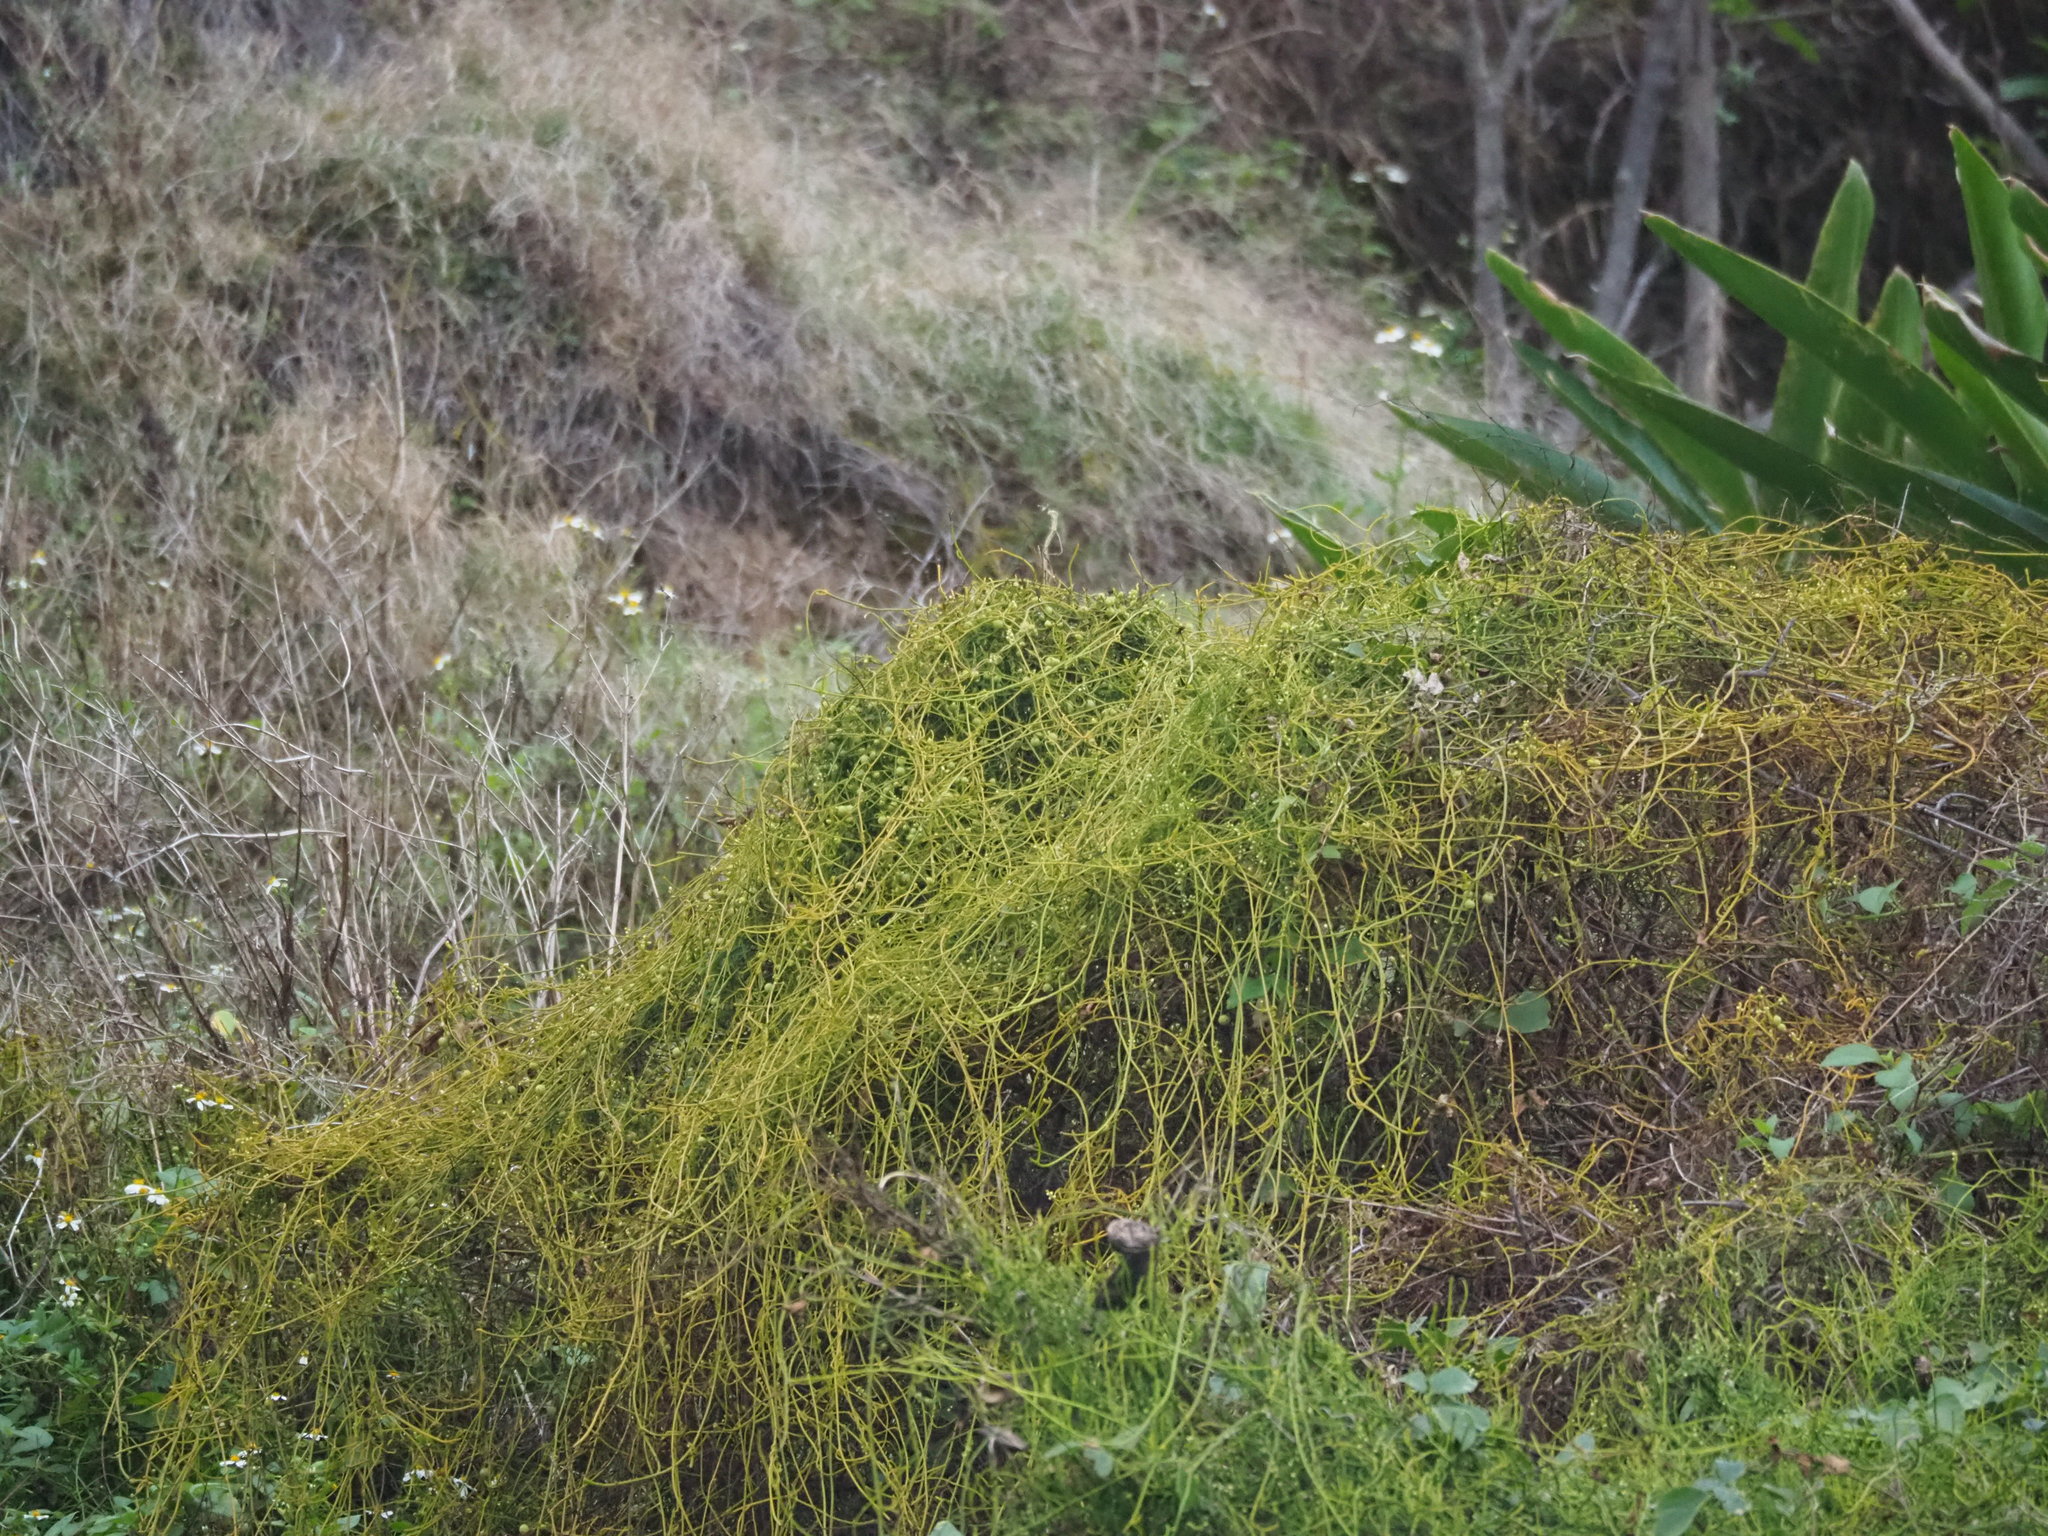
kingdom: Plantae
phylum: Tracheophyta
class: Magnoliopsida
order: Laurales
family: Lauraceae
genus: Cassytha
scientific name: Cassytha filiformis
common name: Dodder-laurel
